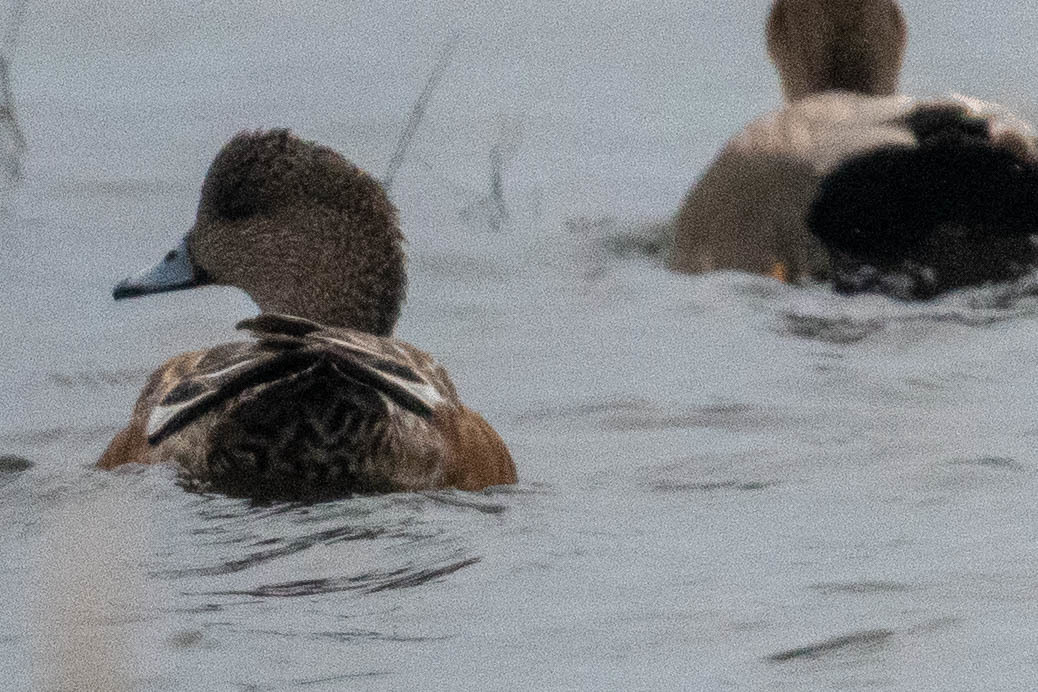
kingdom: Animalia
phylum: Chordata
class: Aves
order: Anseriformes
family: Anatidae
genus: Mareca
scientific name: Mareca americana
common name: American wigeon
